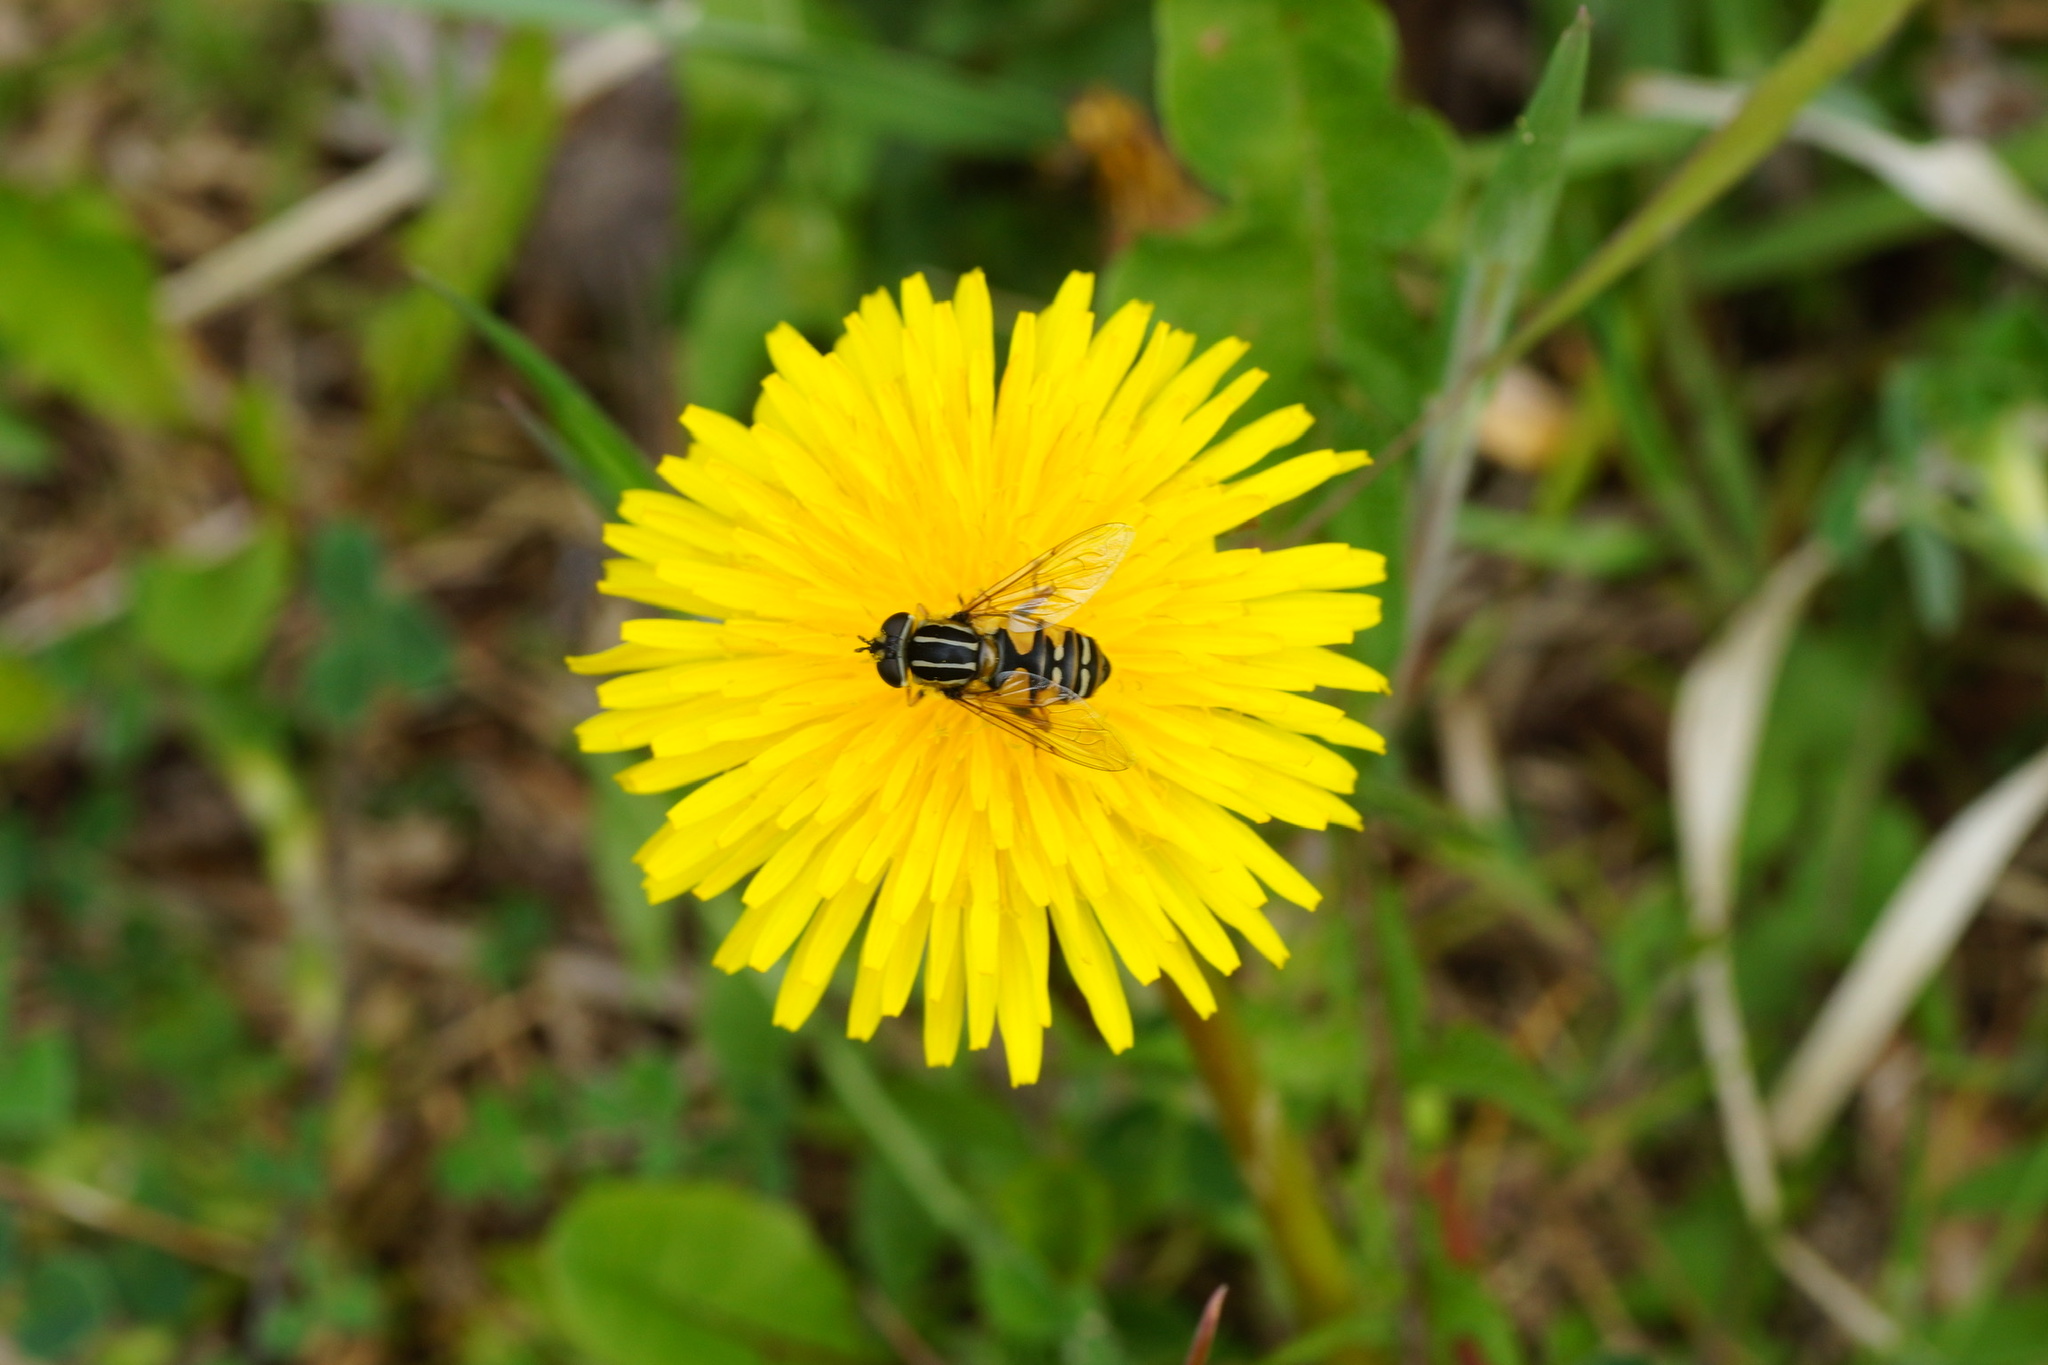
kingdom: Animalia
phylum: Arthropoda
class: Insecta
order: Diptera
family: Syrphidae
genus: Helophilus
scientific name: Helophilus pendulus
